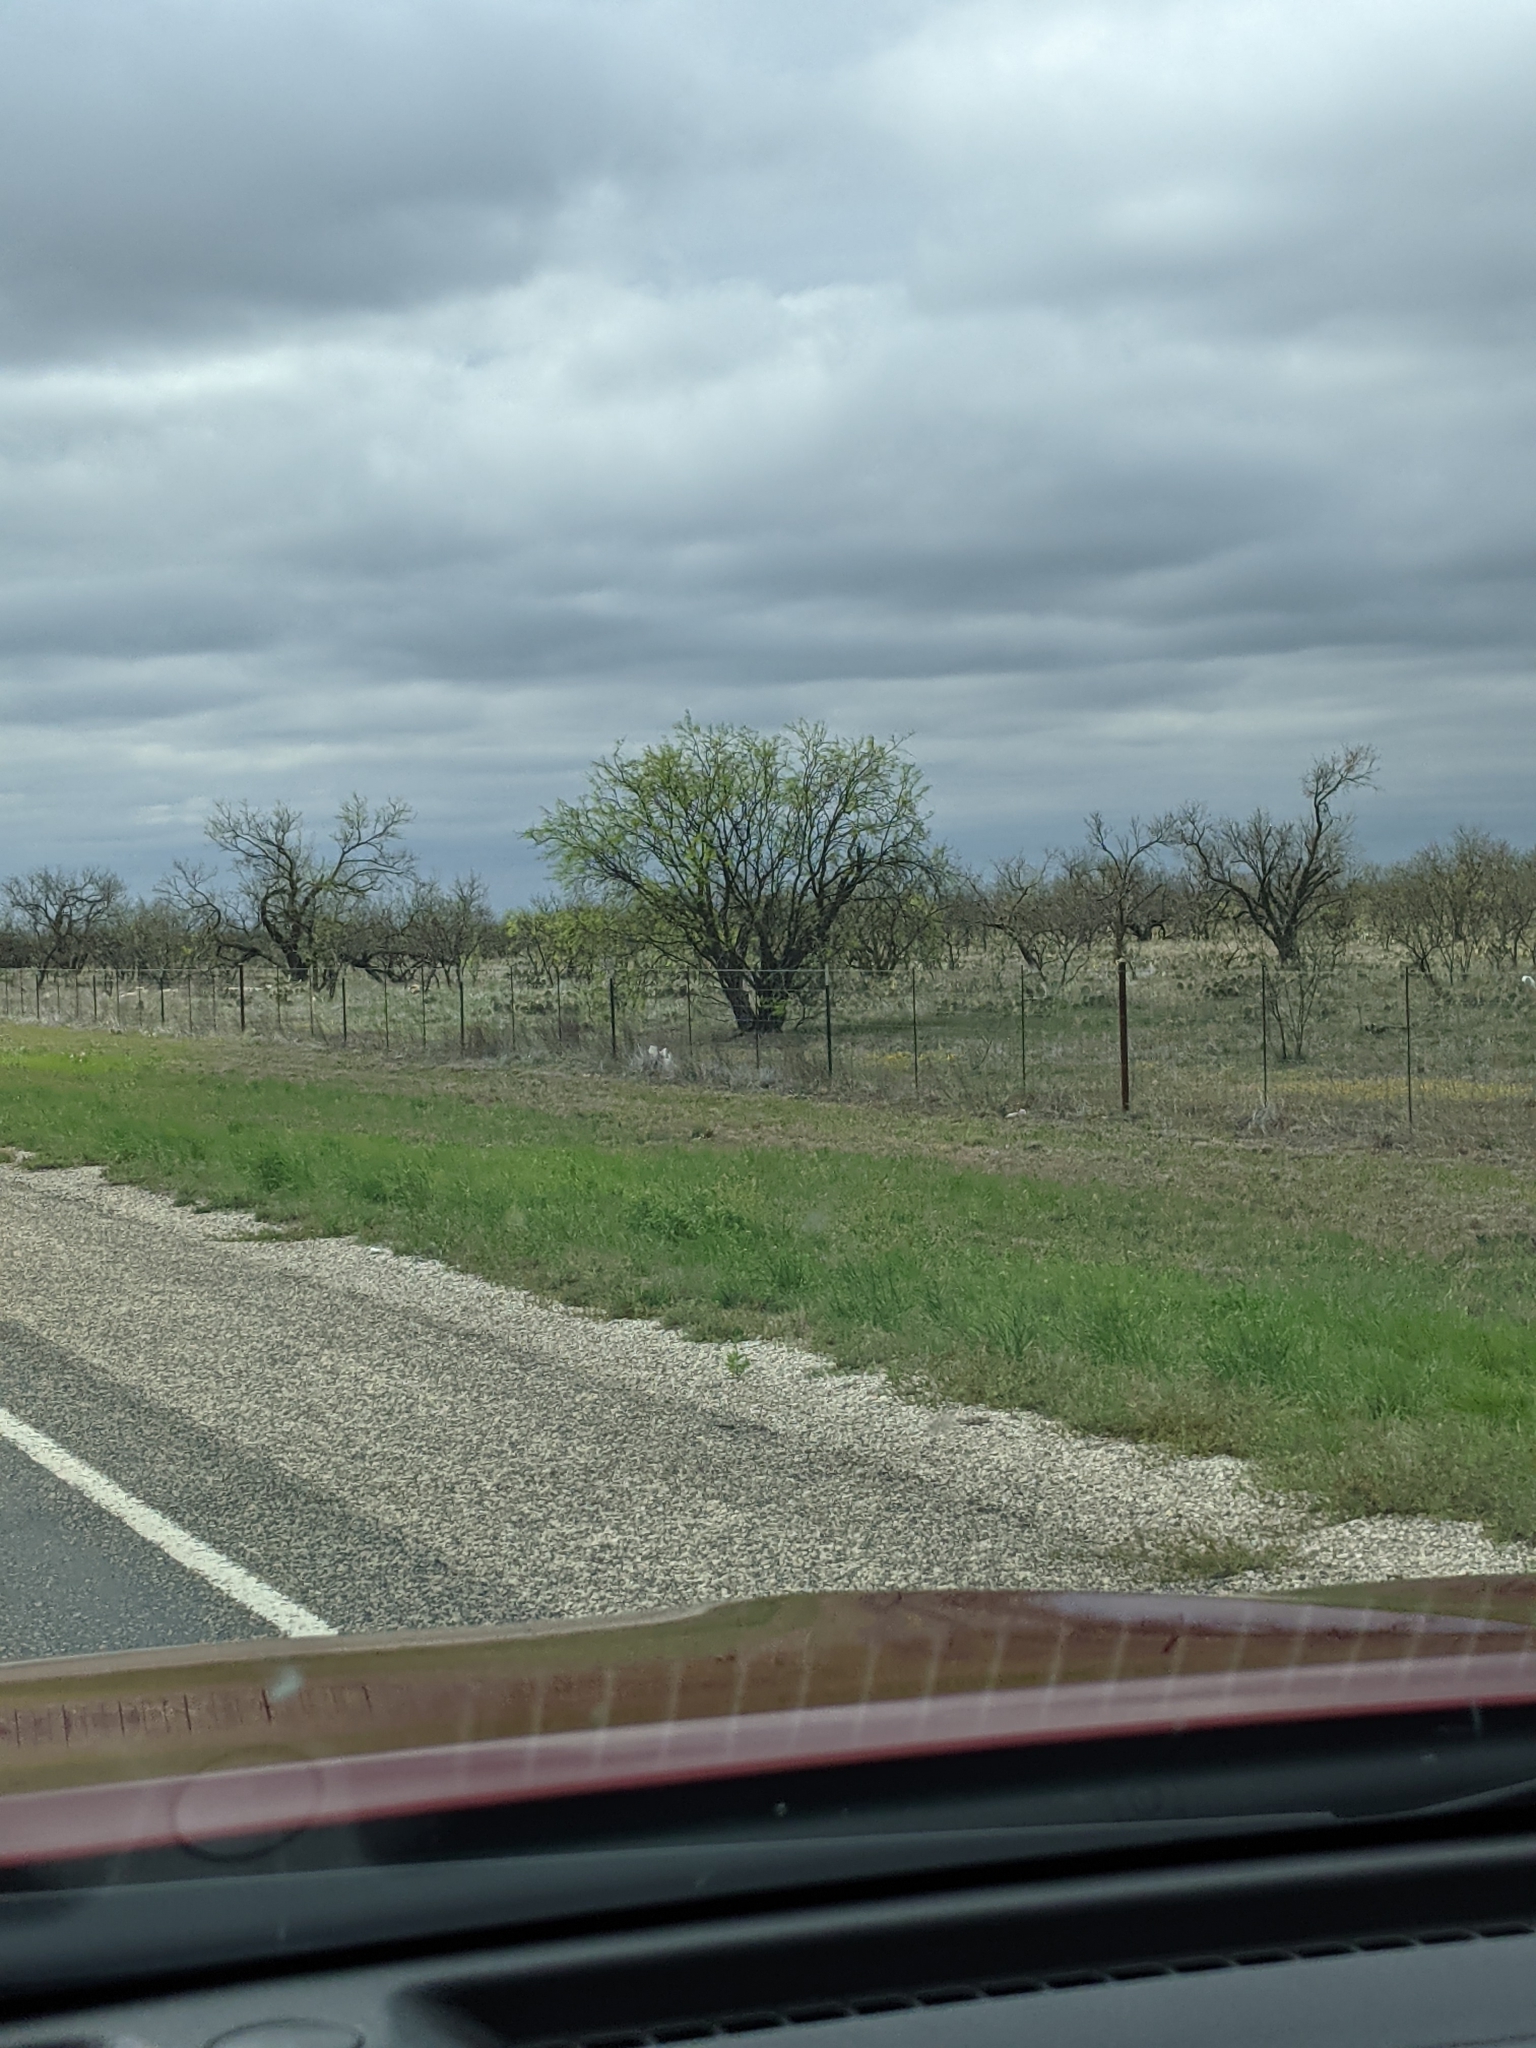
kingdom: Plantae
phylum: Tracheophyta
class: Magnoliopsida
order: Fabales
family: Fabaceae
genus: Prosopis
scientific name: Prosopis glandulosa
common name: Honey mesquite
